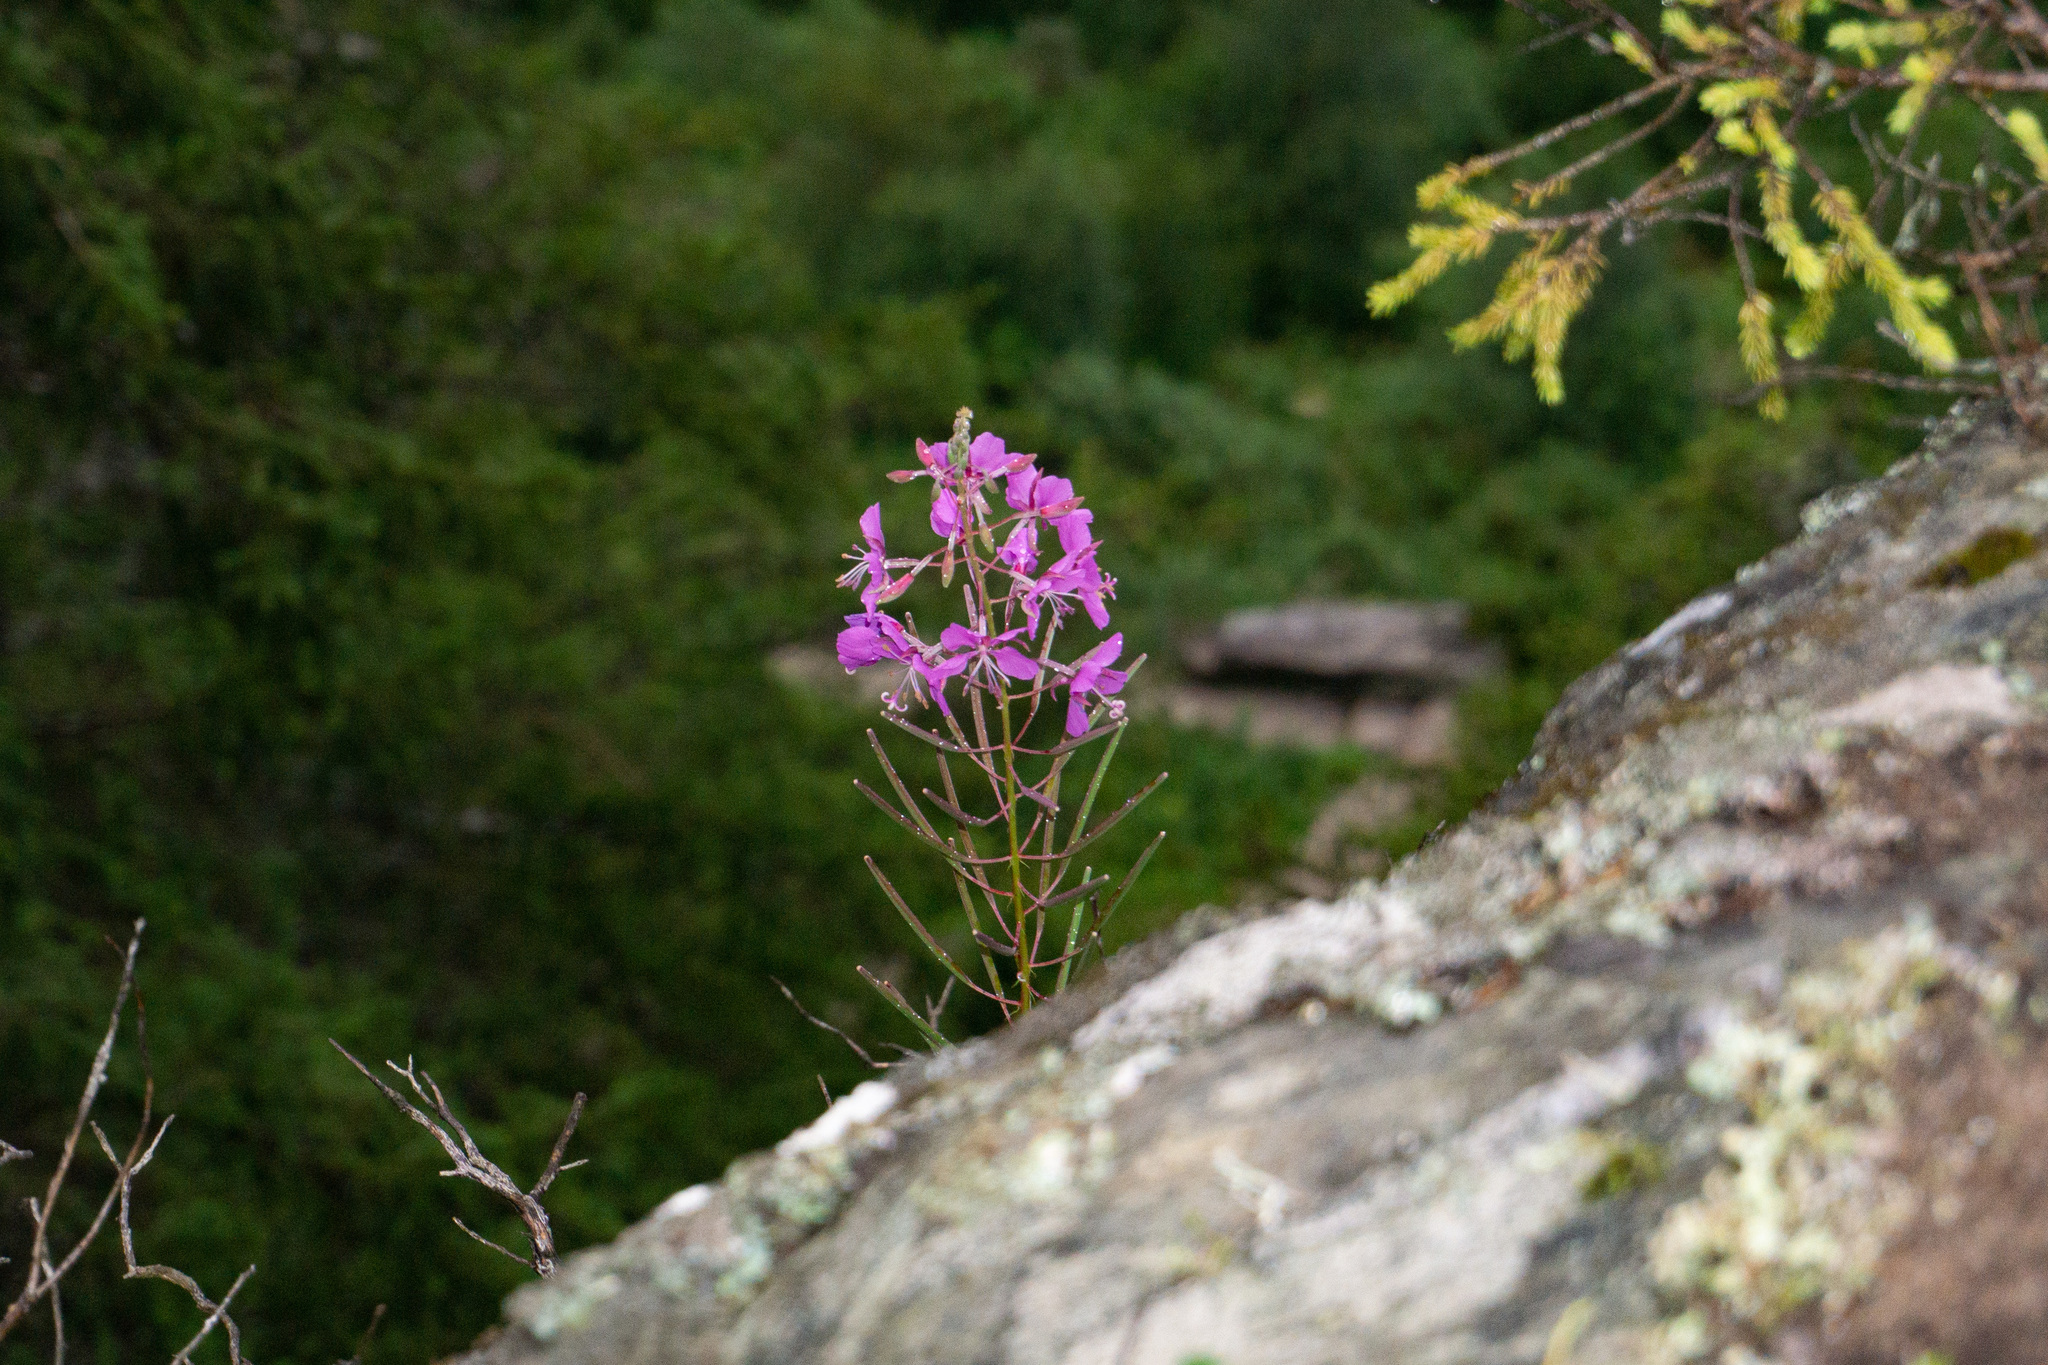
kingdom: Plantae
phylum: Tracheophyta
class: Magnoliopsida
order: Myrtales
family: Onagraceae
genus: Chamaenerion
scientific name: Chamaenerion angustifolium
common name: Fireweed
